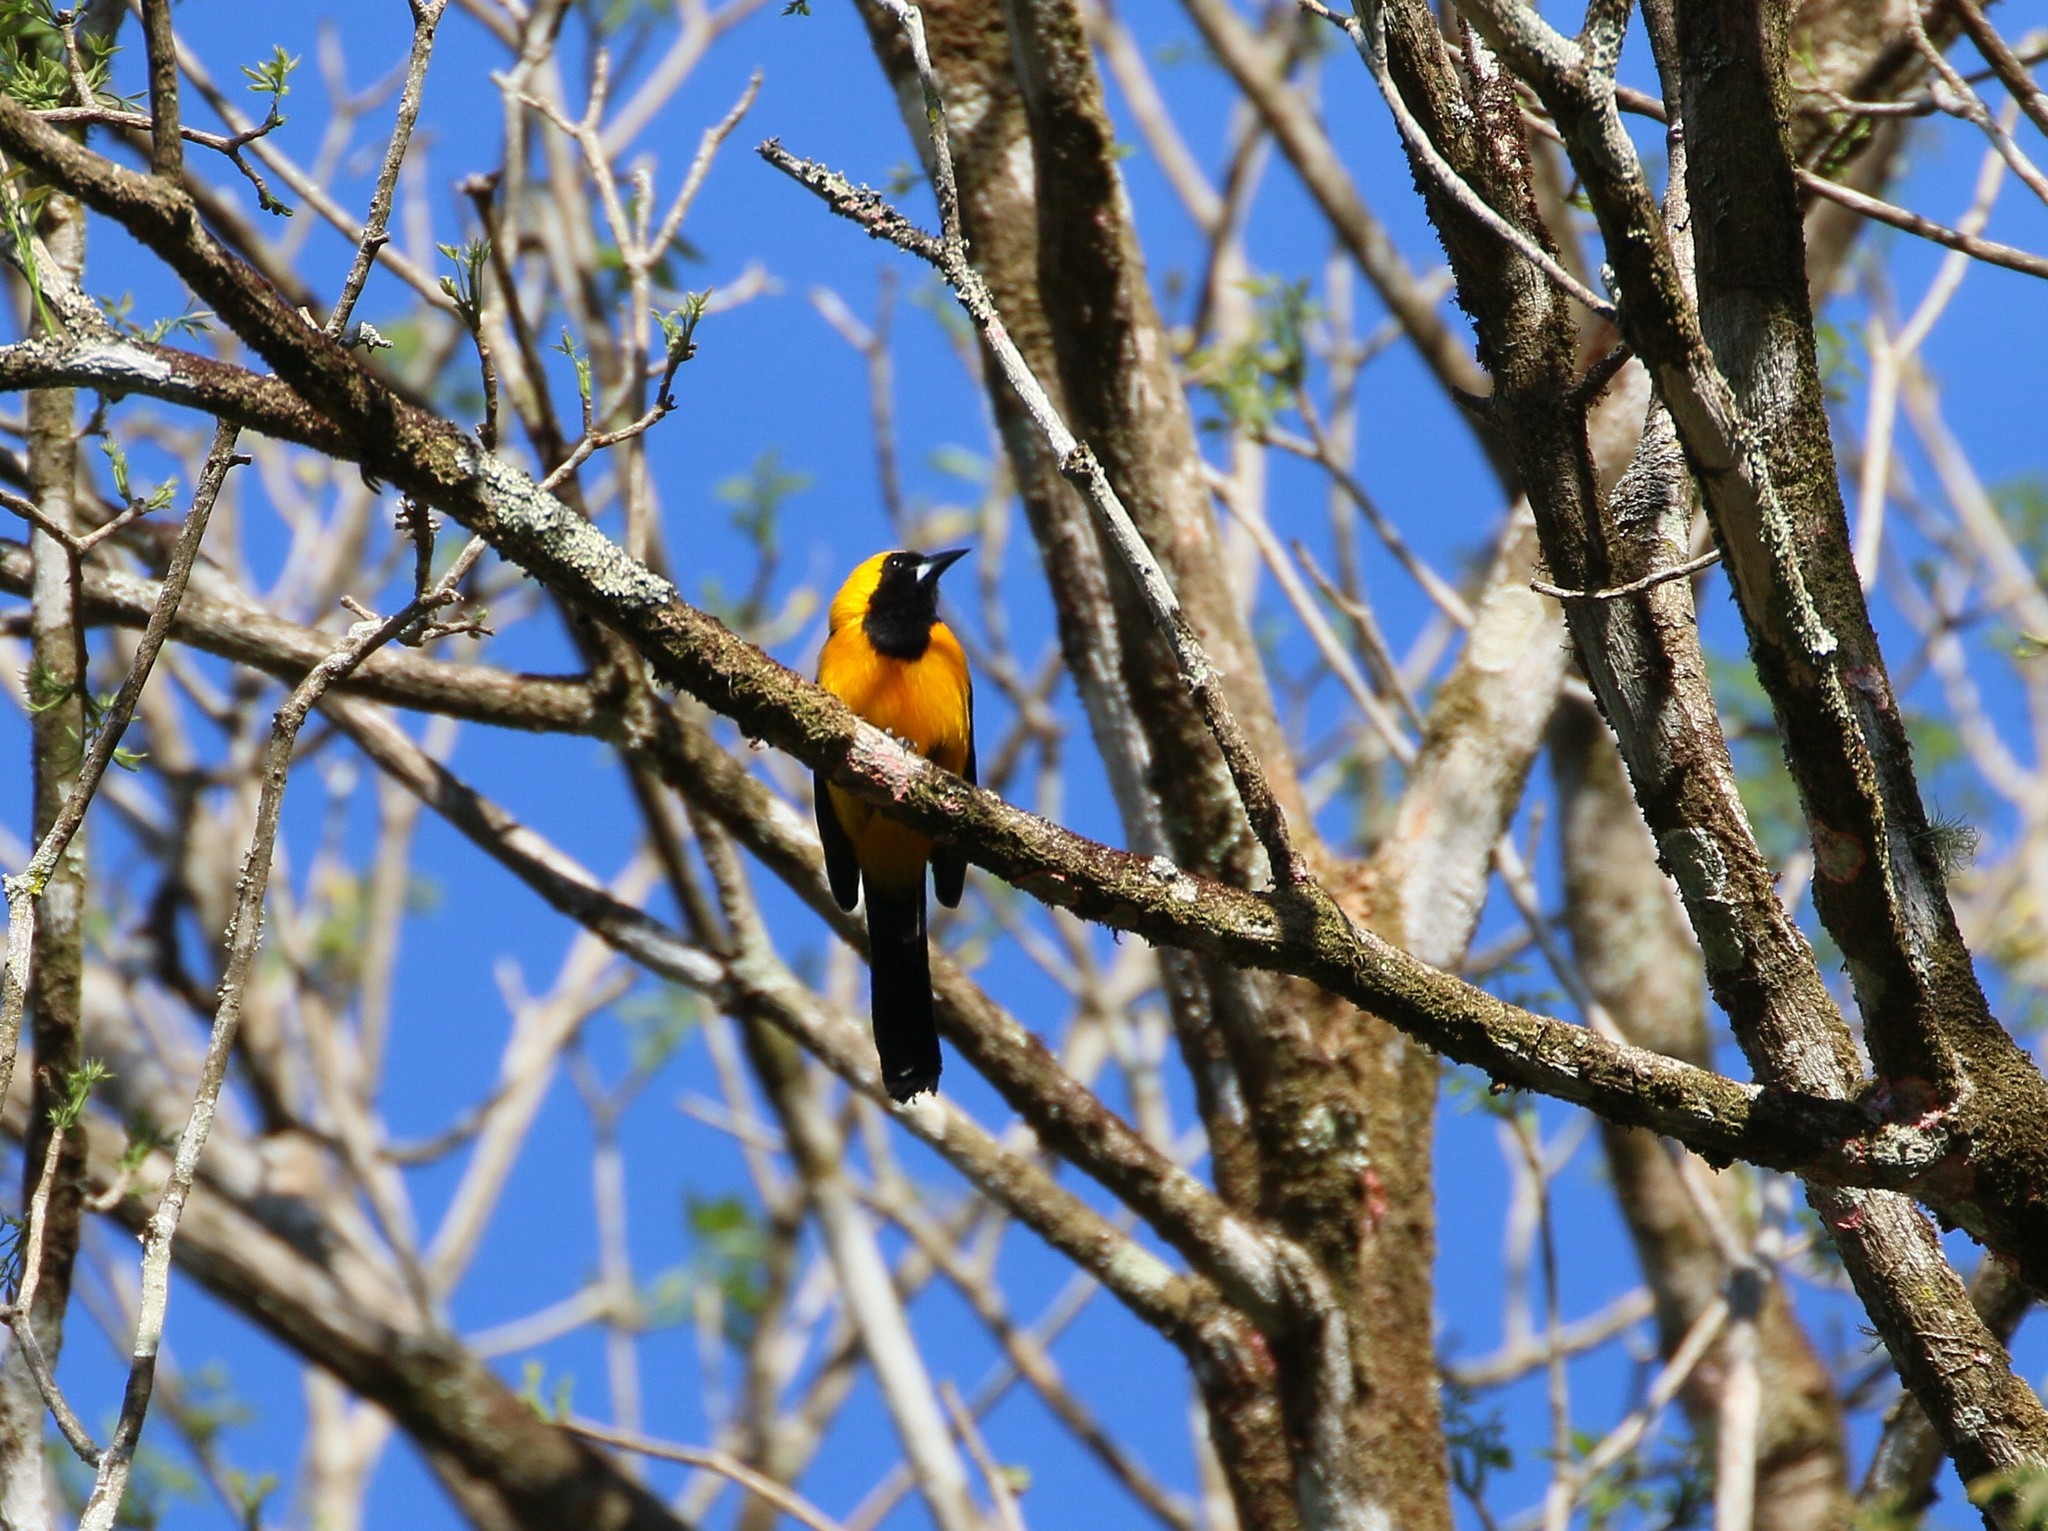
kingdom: Animalia
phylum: Chordata
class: Aves
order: Passeriformes
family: Icteridae
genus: Icterus
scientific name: Icterus chrysater
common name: Yellow-backed oriole
